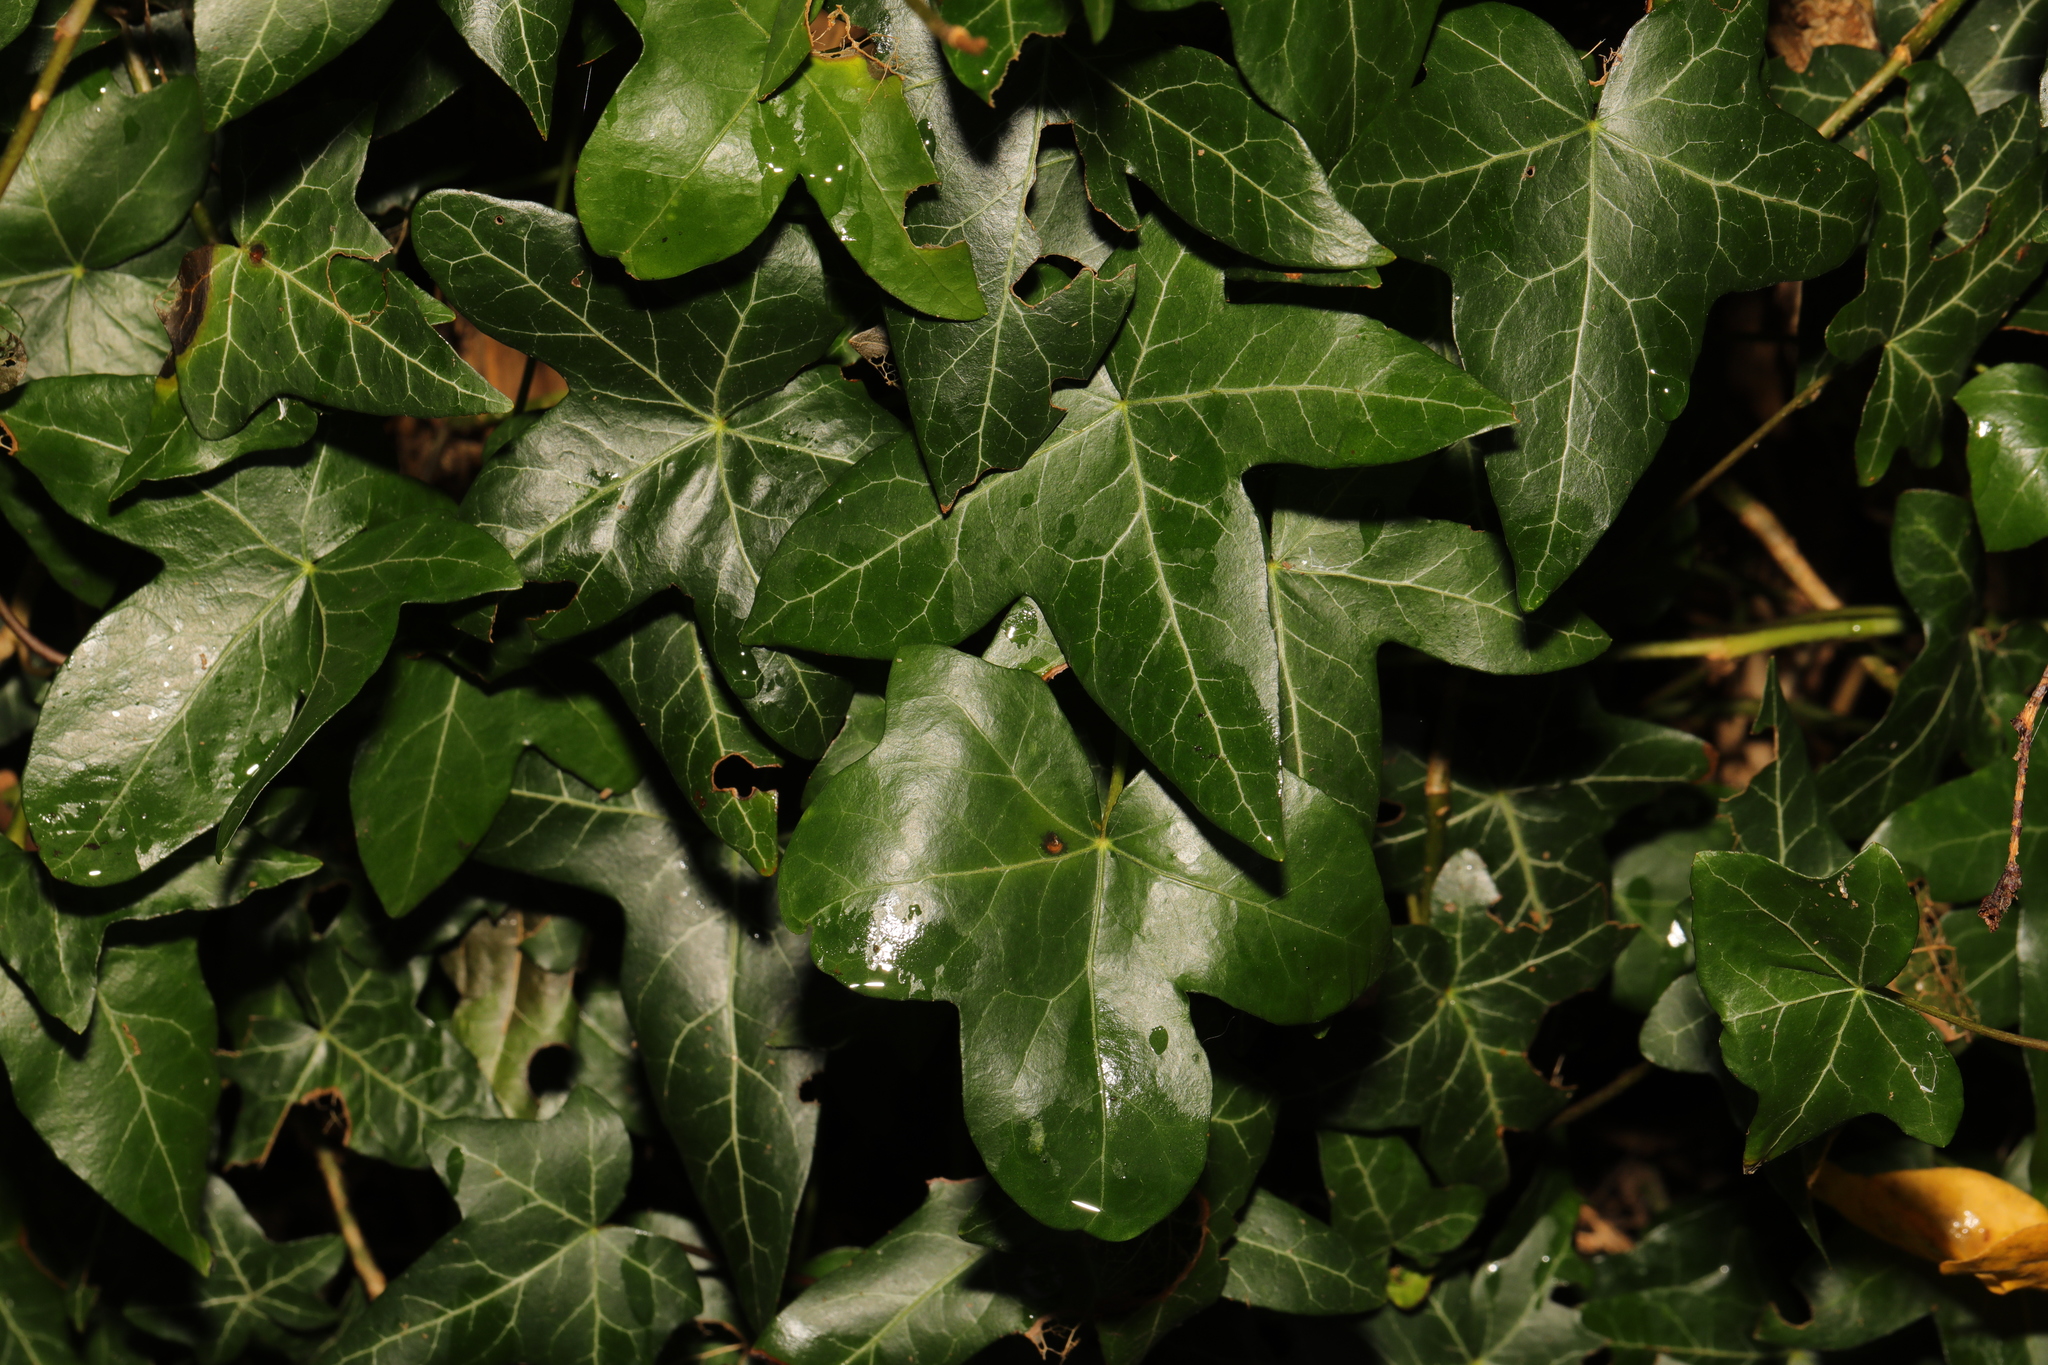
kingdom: Plantae
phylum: Tracheophyta
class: Magnoliopsida
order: Apiales
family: Araliaceae
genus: Hedera
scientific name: Hedera helix
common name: Ivy
